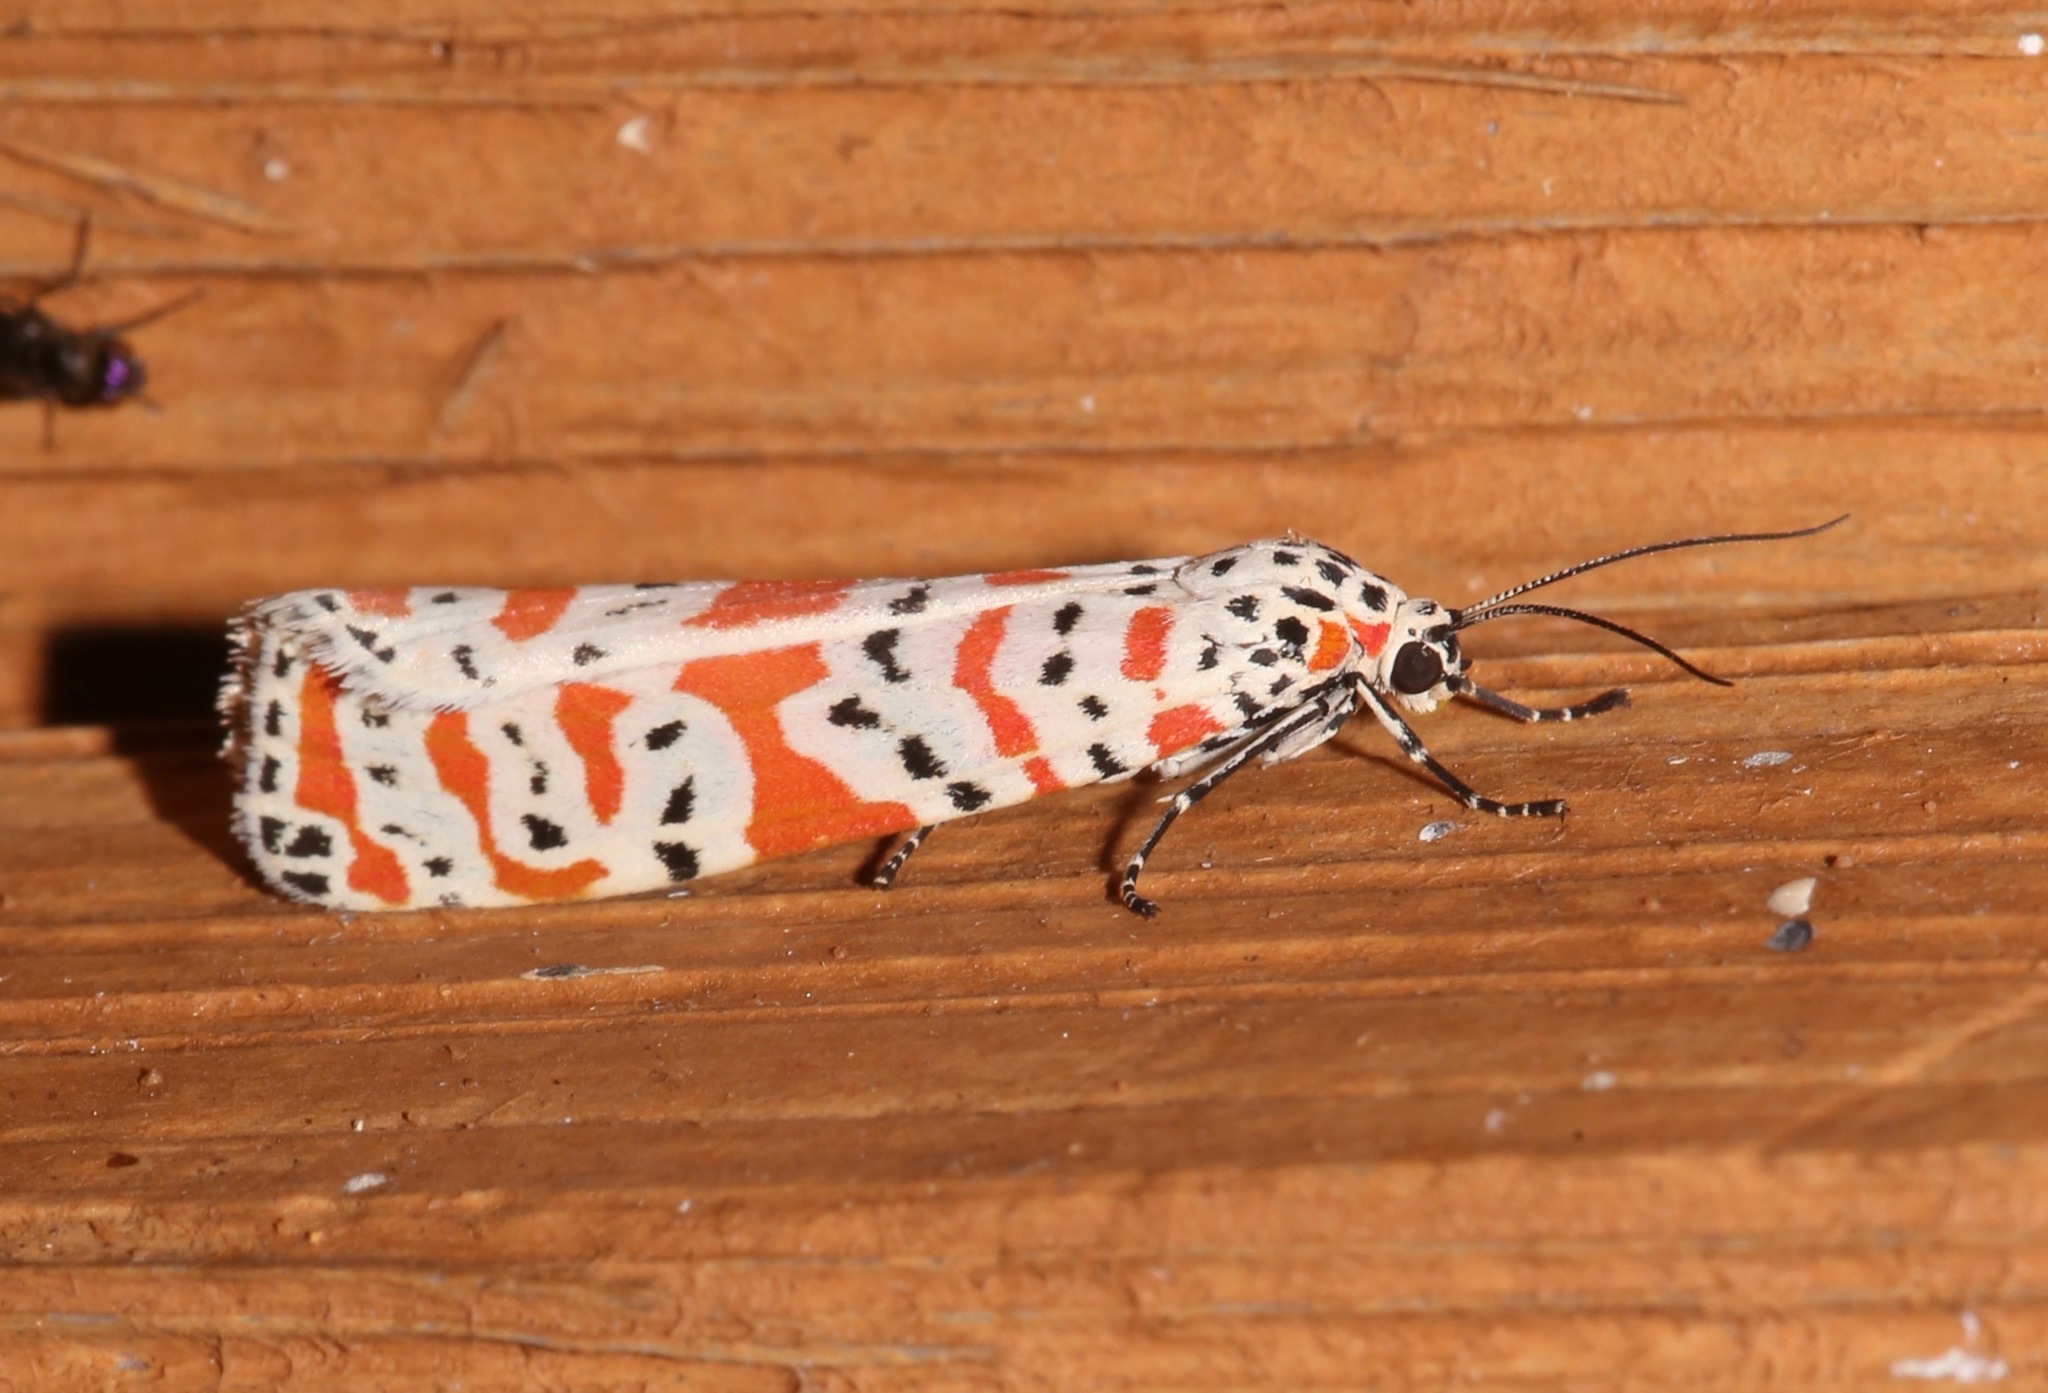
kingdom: Animalia
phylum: Arthropoda
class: Insecta
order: Lepidoptera
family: Erebidae
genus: Utetheisa
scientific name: Utetheisa ornatrix
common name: Beautiful utetheisa
